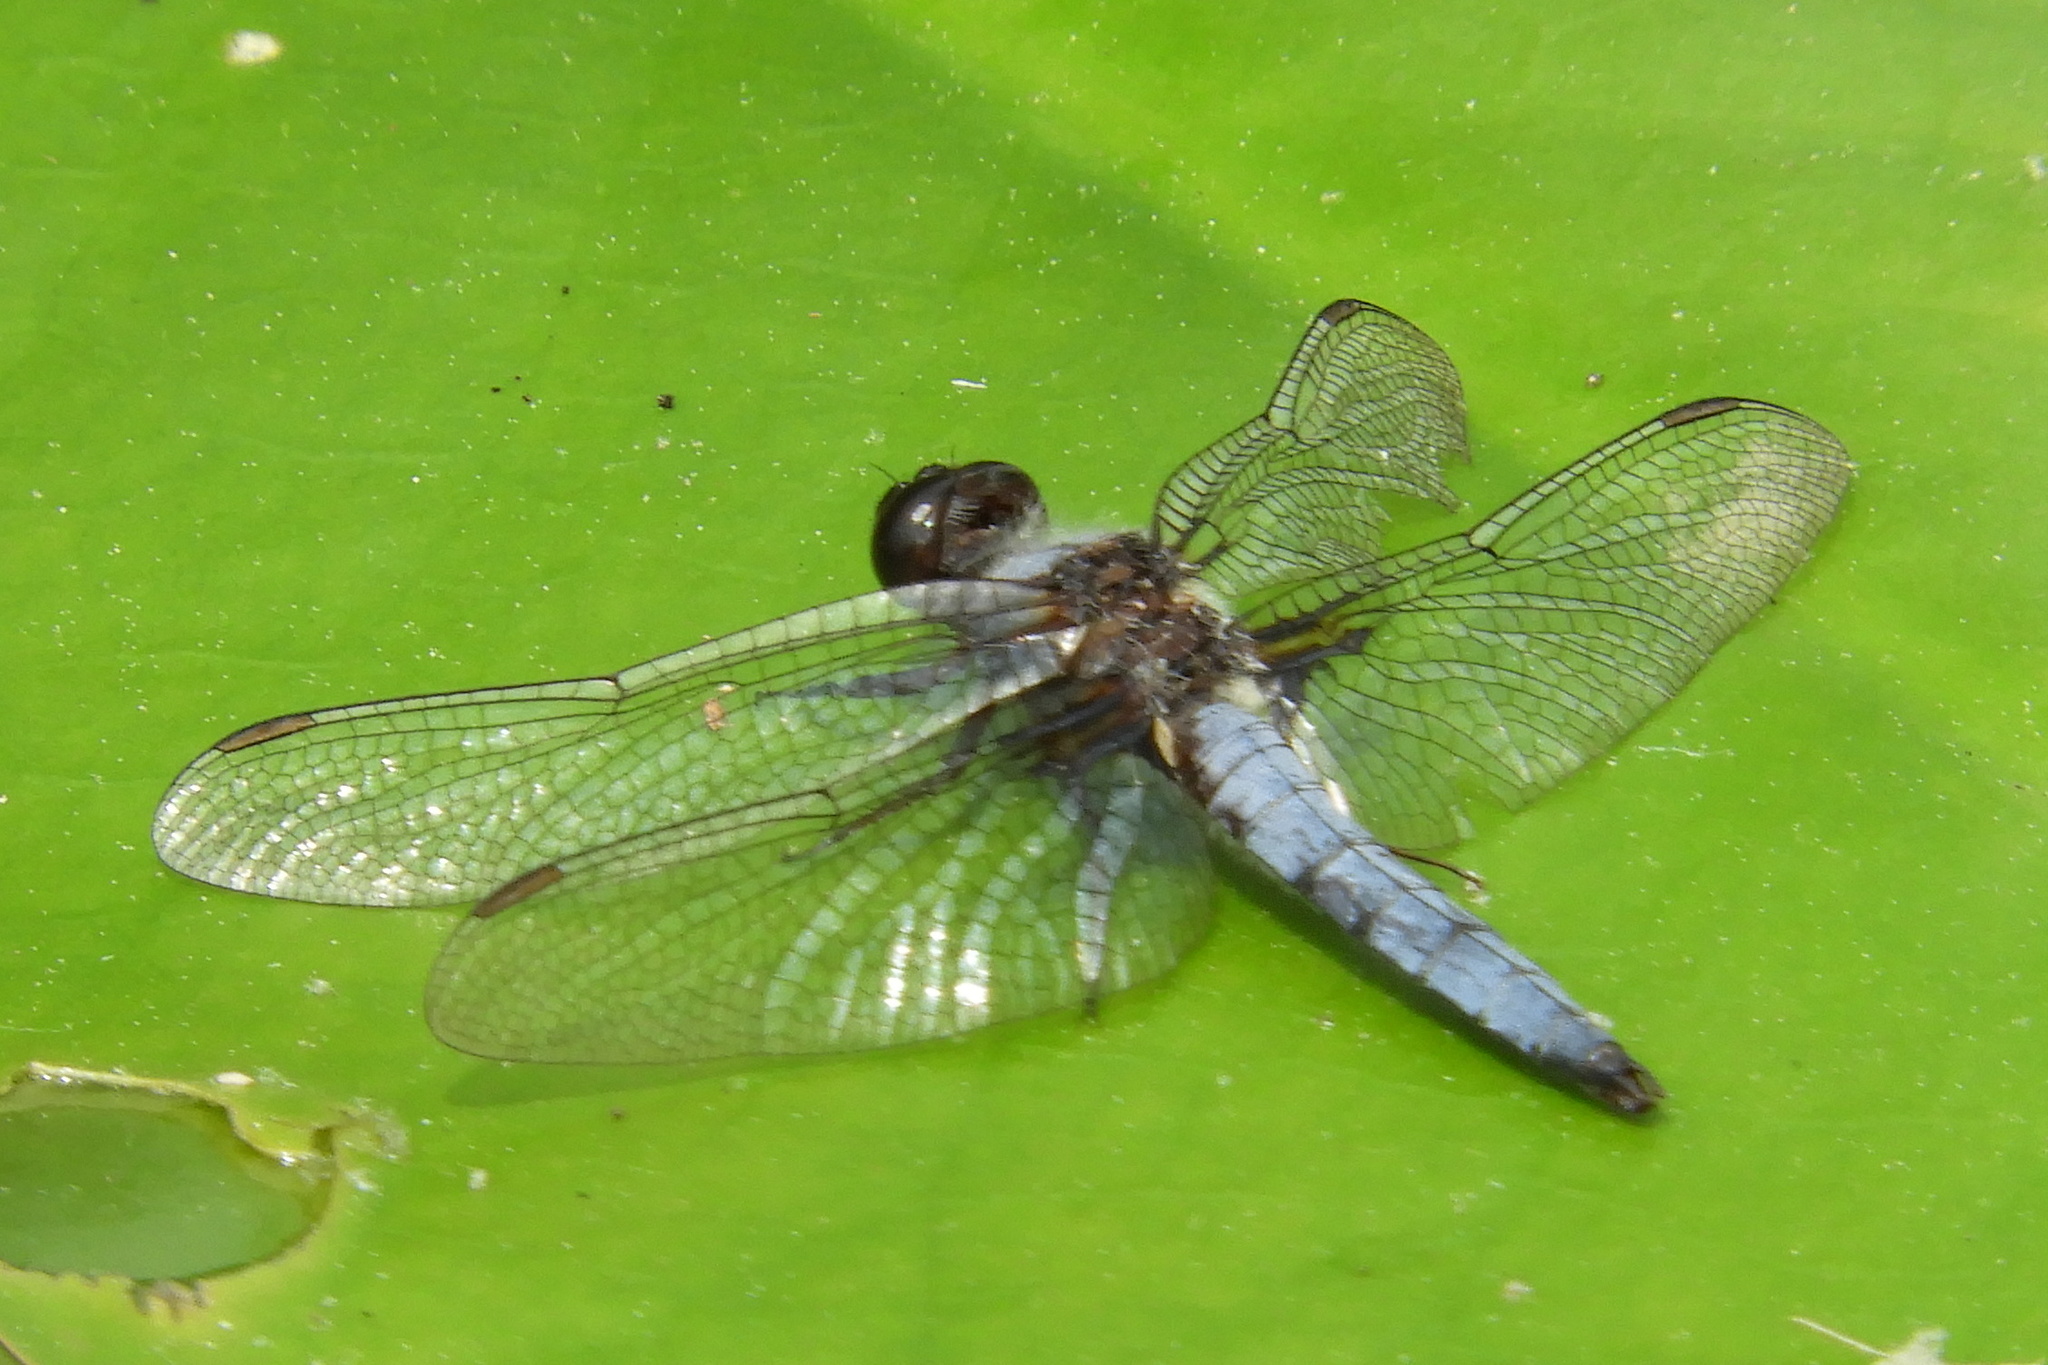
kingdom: Animalia
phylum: Arthropoda
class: Insecta
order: Odonata
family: Libellulidae
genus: Ladona
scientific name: Ladona deplanata
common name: Blue corporal
